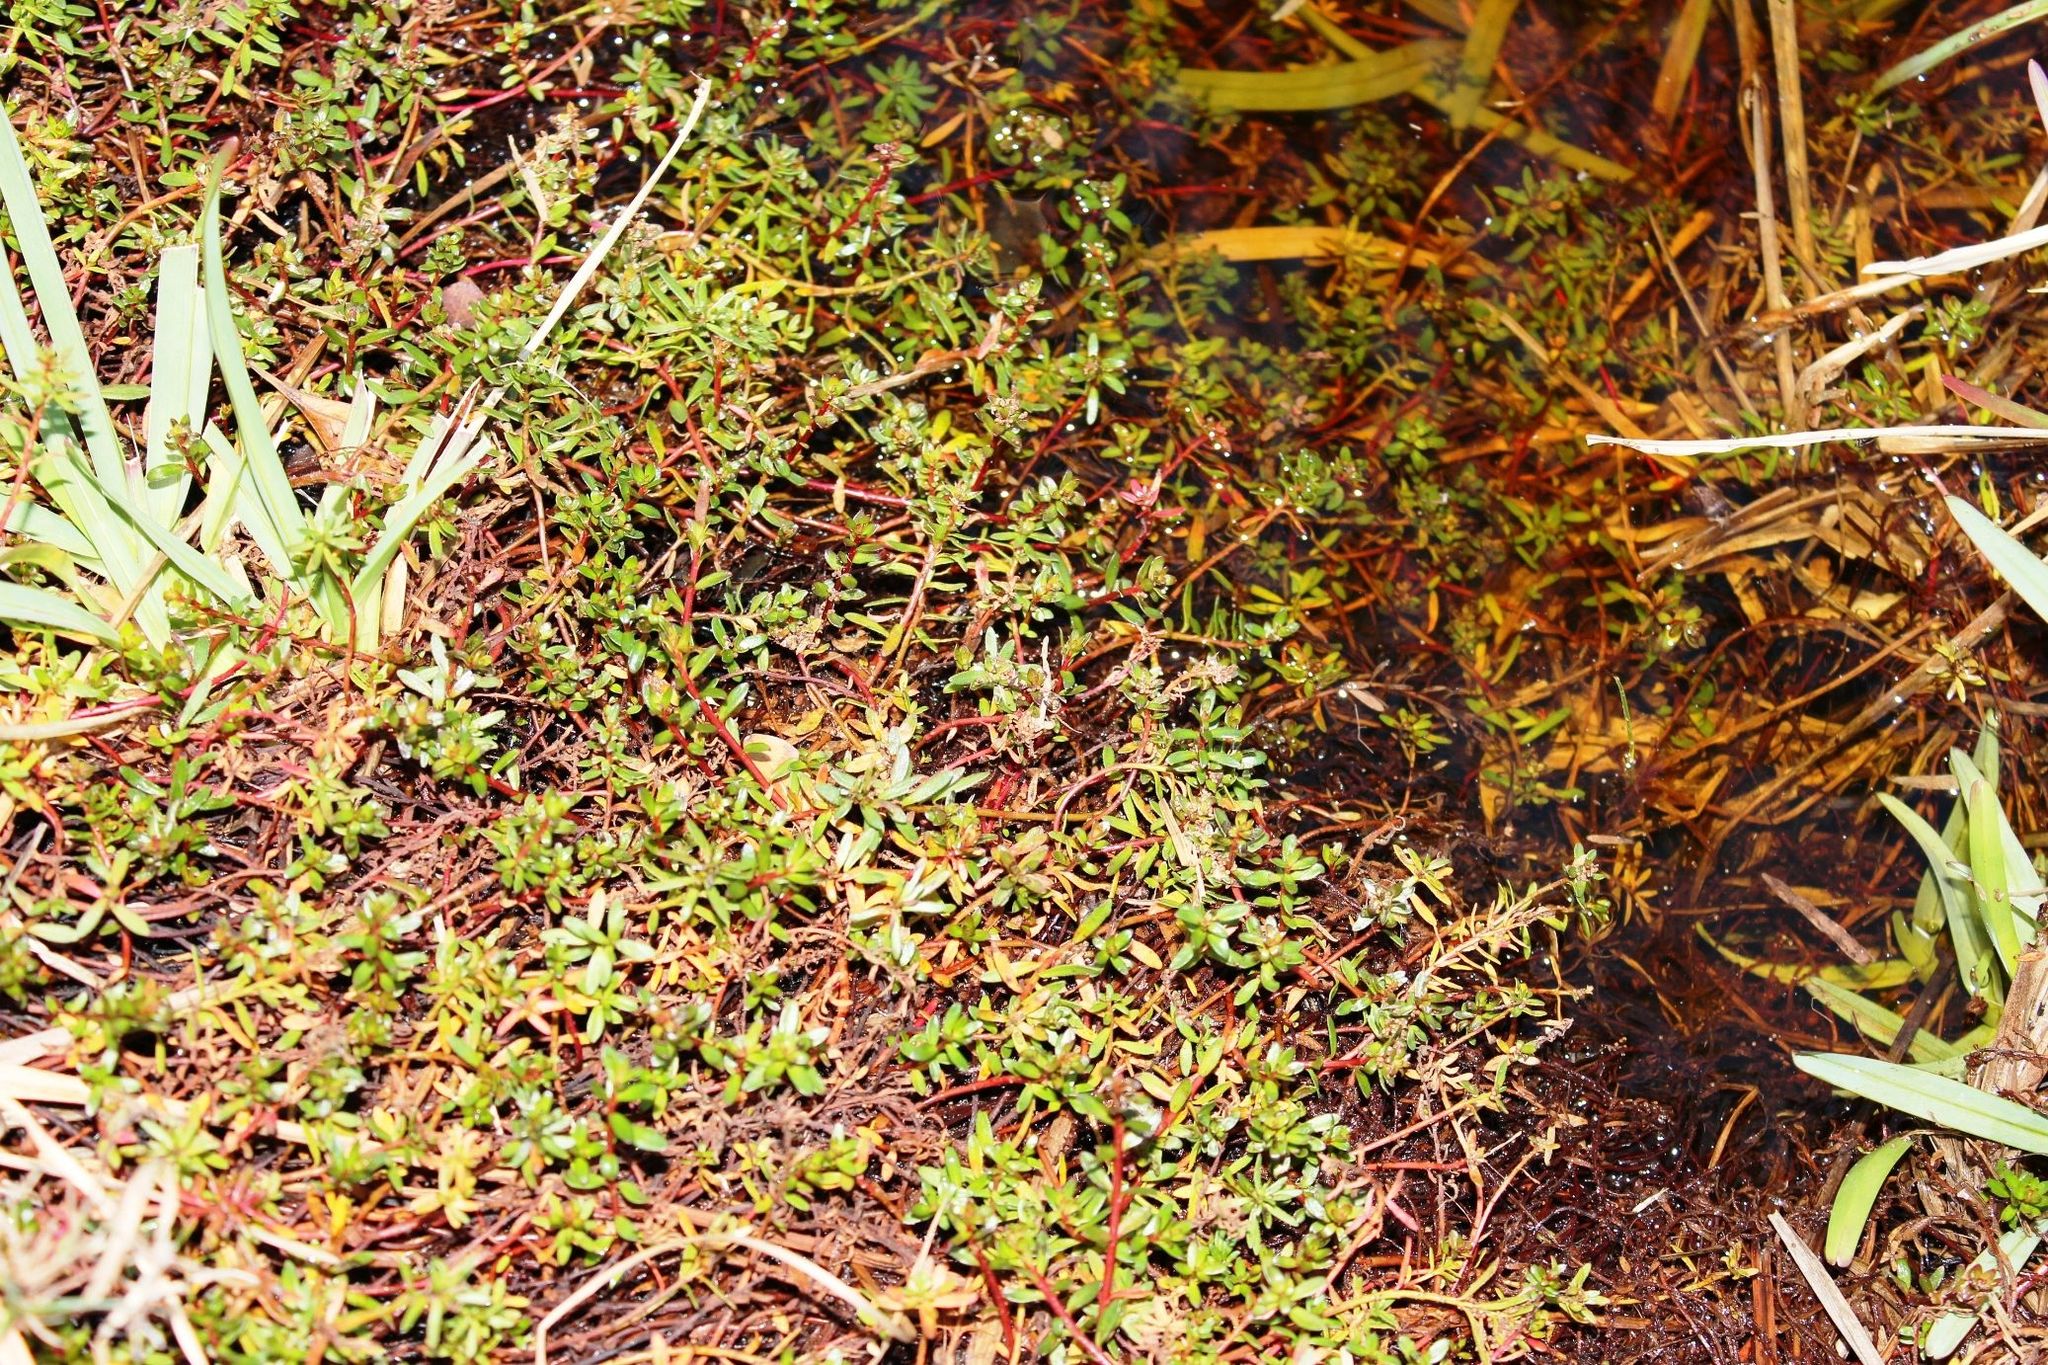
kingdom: Plantae
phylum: Tracheophyta
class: Magnoliopsida
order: Saxifragales
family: Haloragaceae
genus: Laurembergia
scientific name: Laurembergia repens
